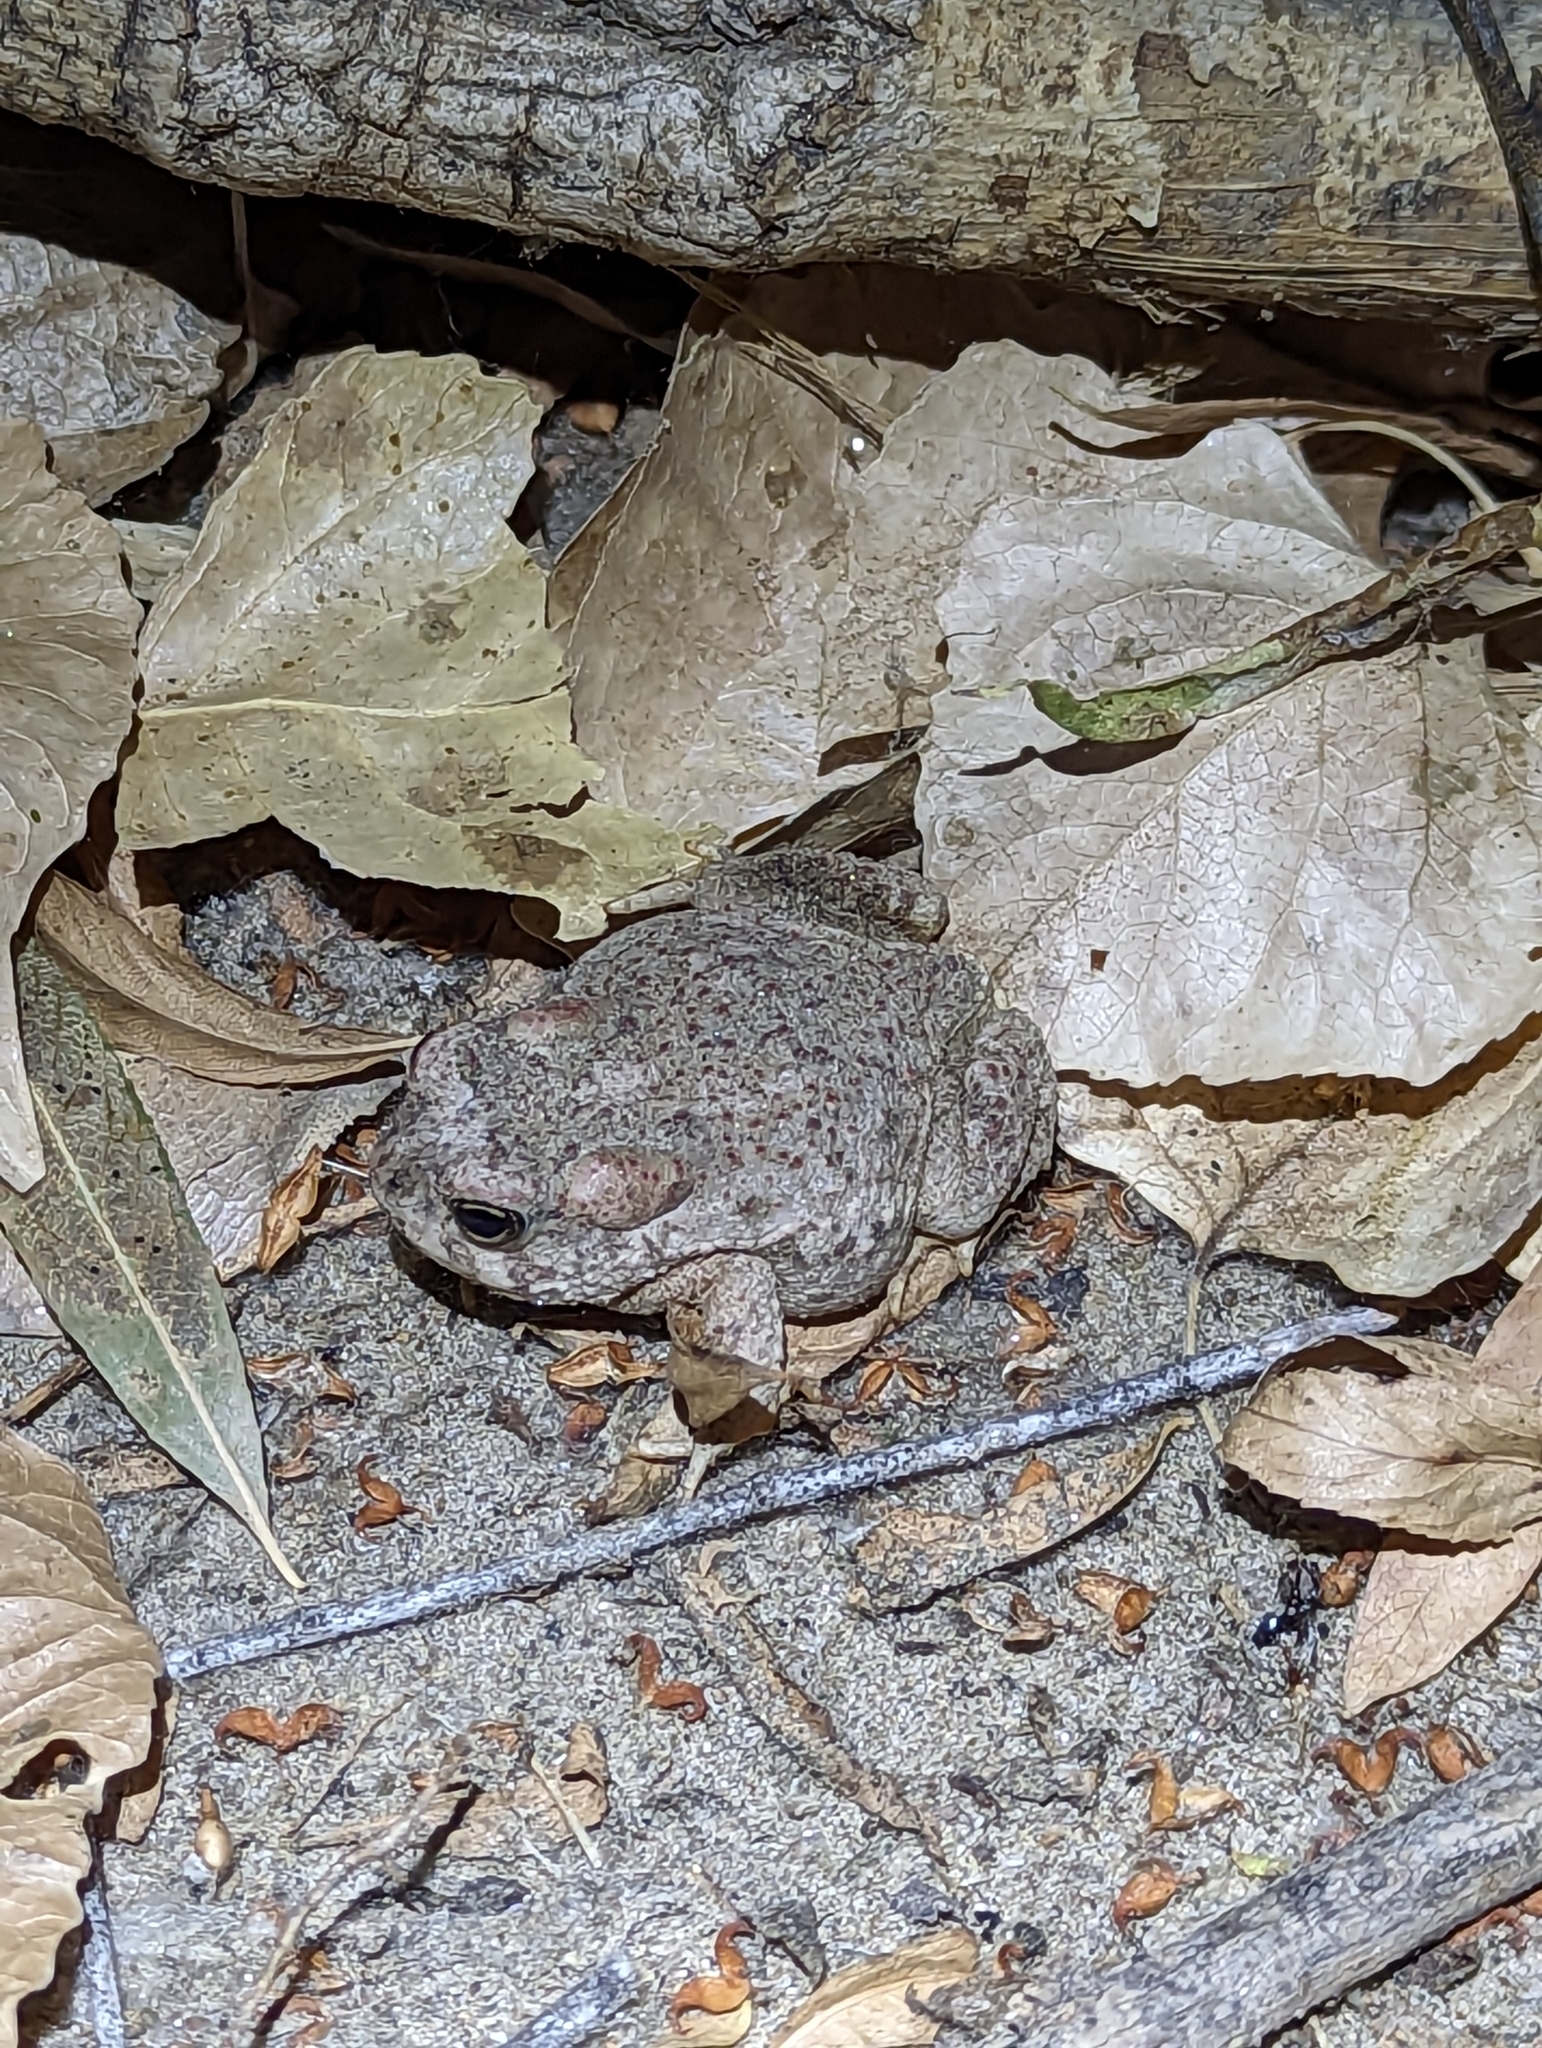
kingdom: Animalia
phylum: Chordata
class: Amphibia
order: Anura
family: Bufonidae
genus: Anaxyrus
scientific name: Anaxyrus microscaphus
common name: Arizona toad
